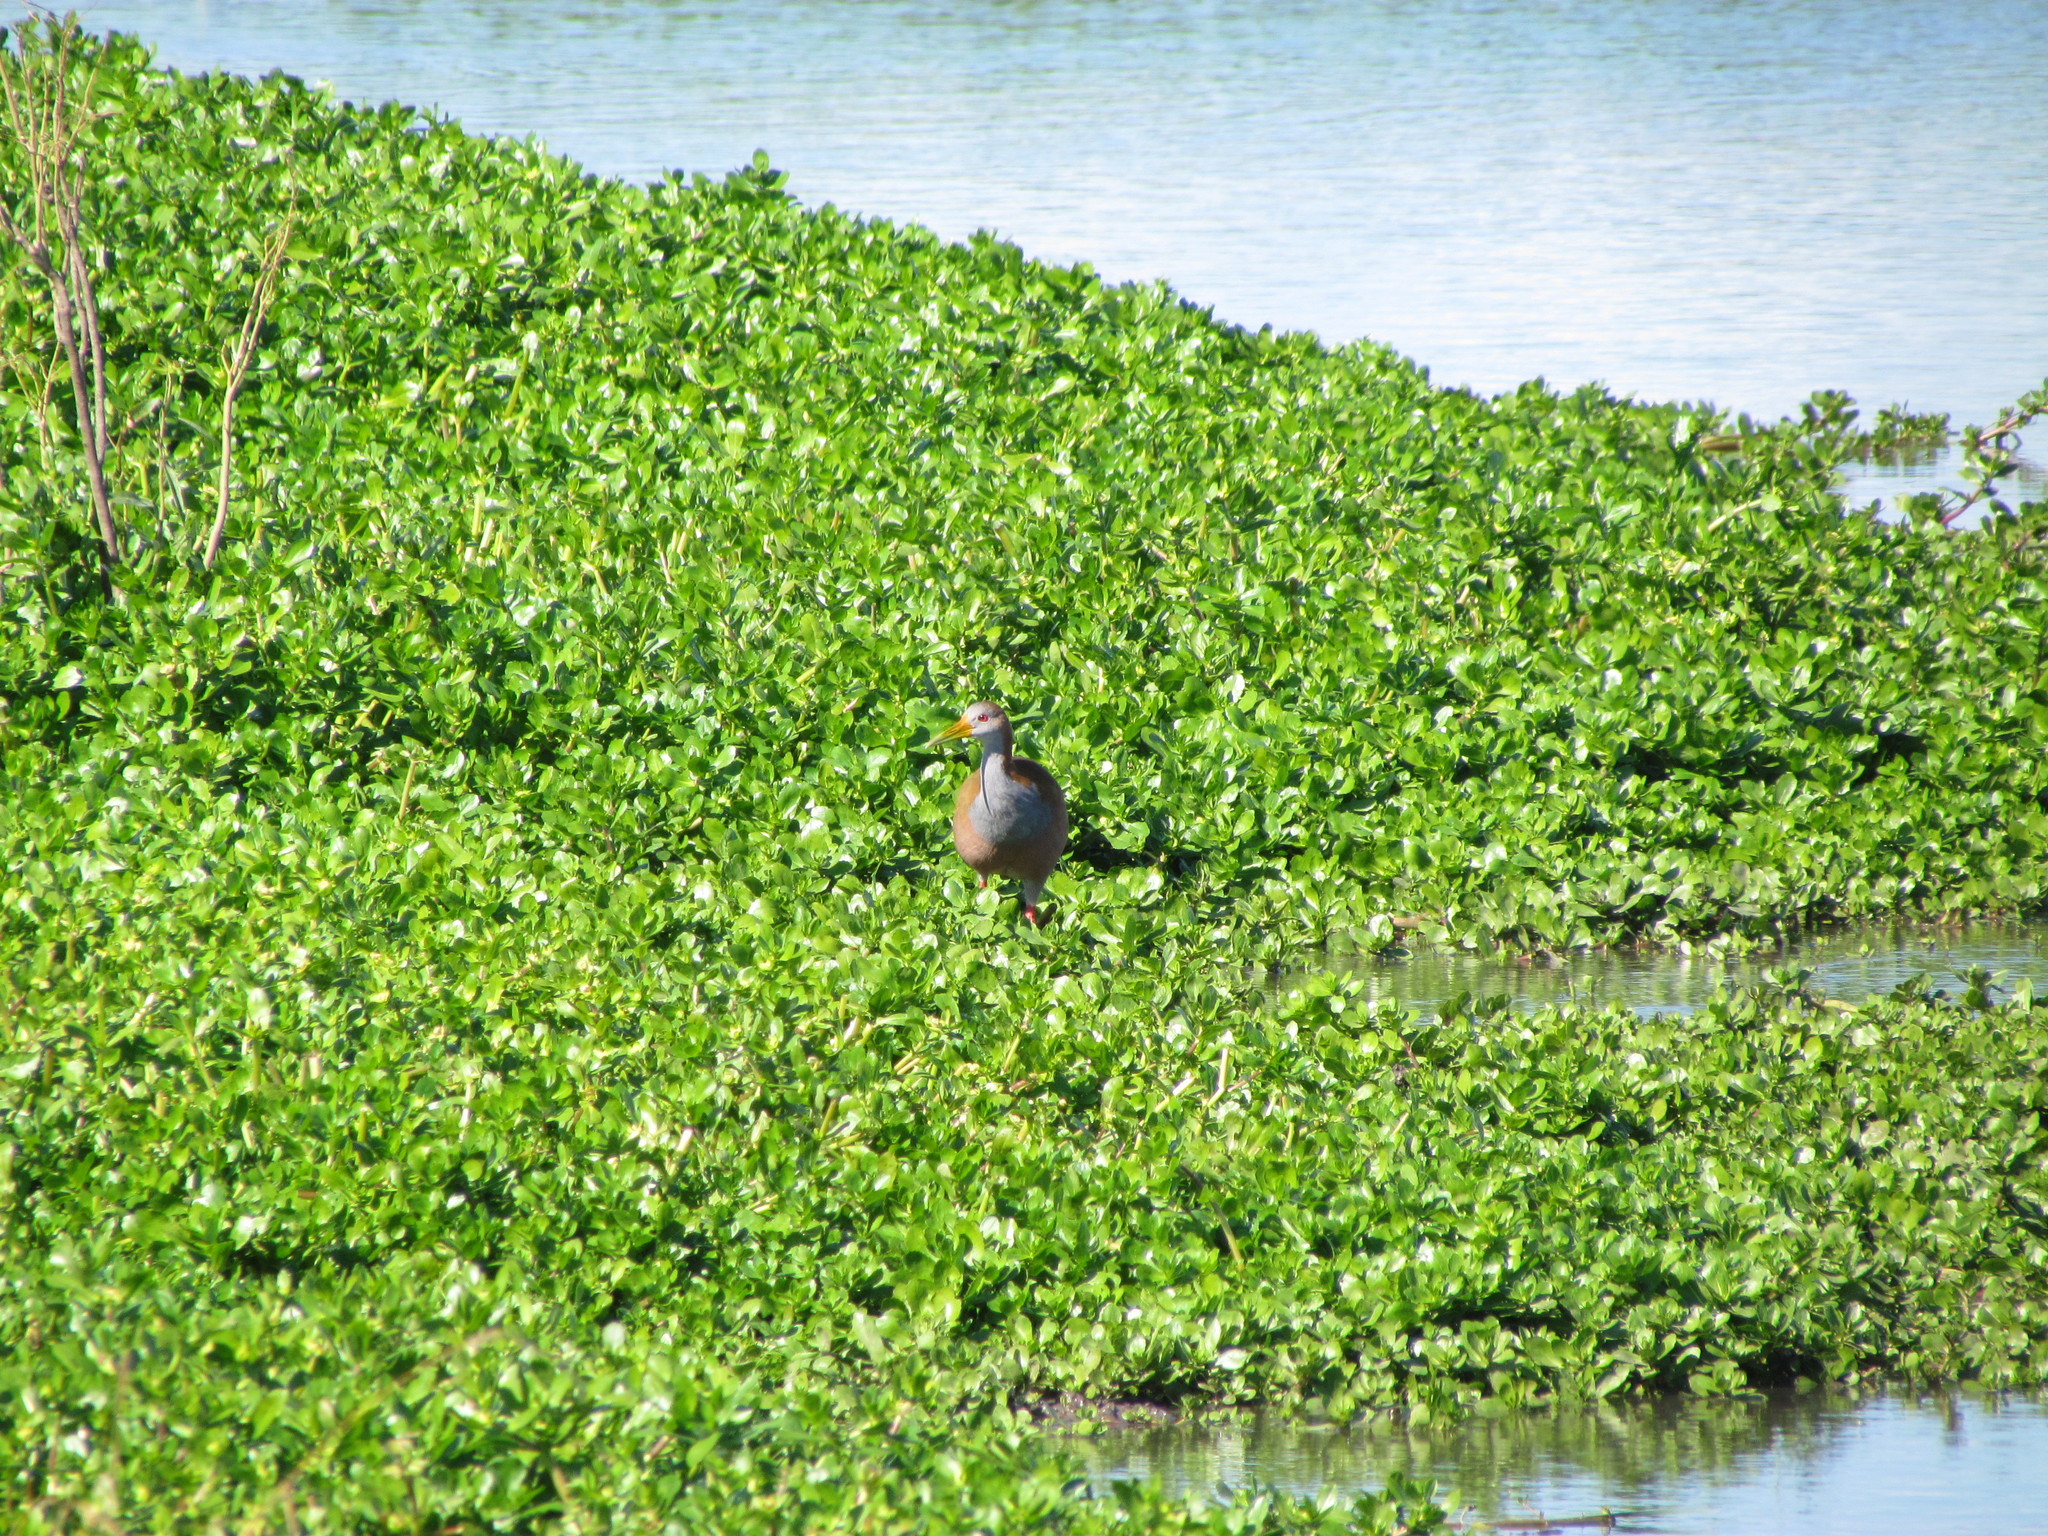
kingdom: Animalia
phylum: Chordata
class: Aves
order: Gruiformes
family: Rallidae
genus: Aramides
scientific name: Aramides ypecaha
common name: Giant wood rail
